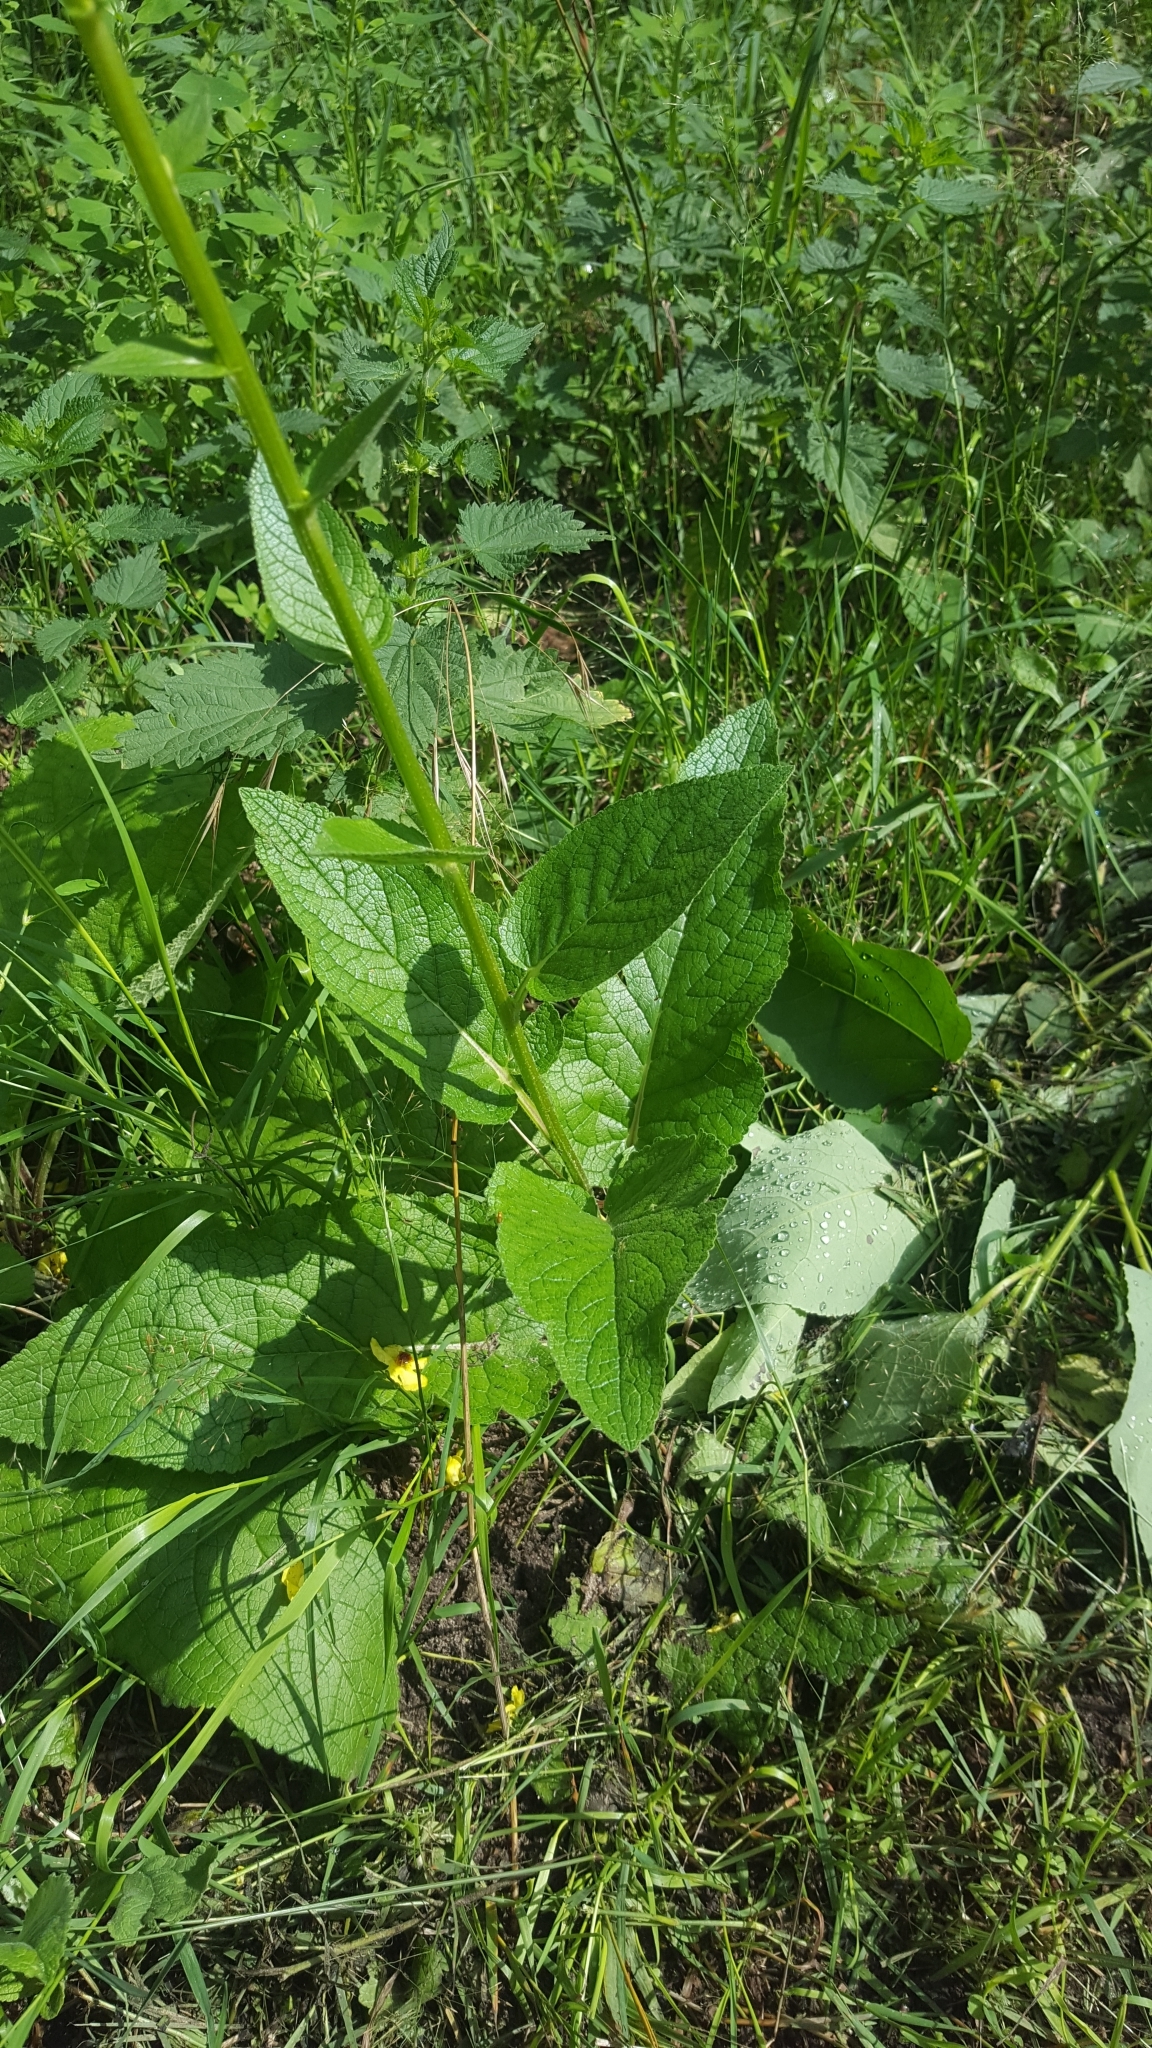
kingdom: Plantae
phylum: Tracheophyta
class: Magnoliopsida
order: Lamiales
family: Scrophulariaceae
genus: Verbascum
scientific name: Verbascum nigrum
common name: Dark mullein
